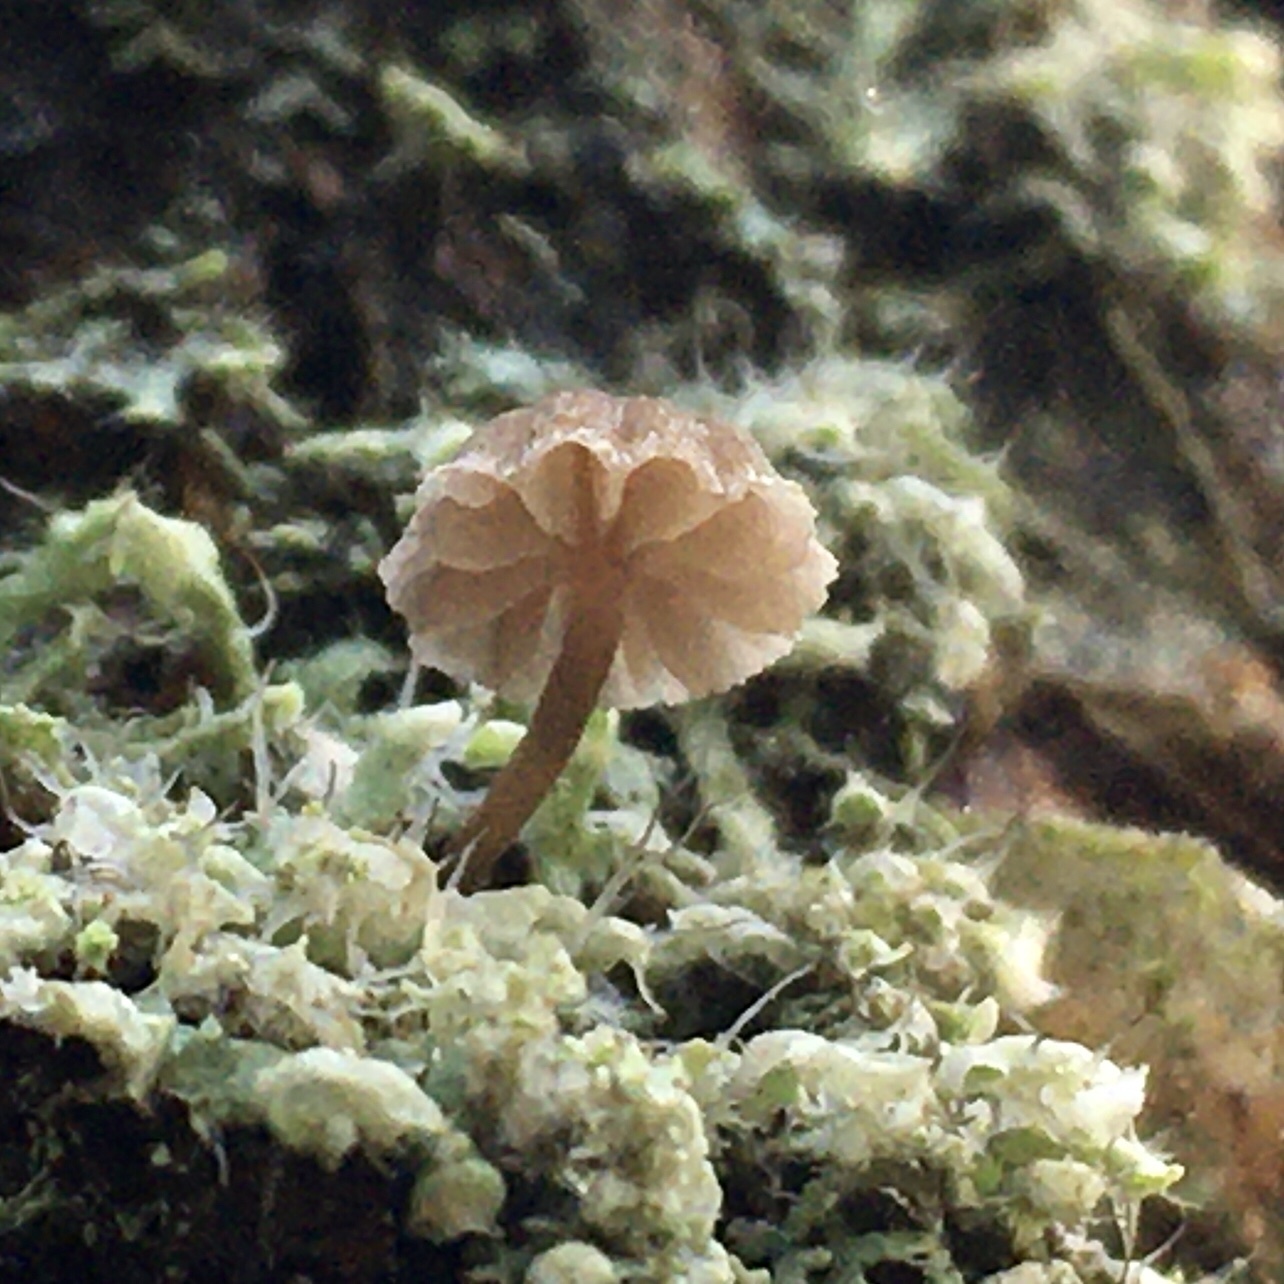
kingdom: Fungi
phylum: Basidiomycota
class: Agaricomycetes
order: Agaricales
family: Mycenaceae
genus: Mycena
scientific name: Mycena
